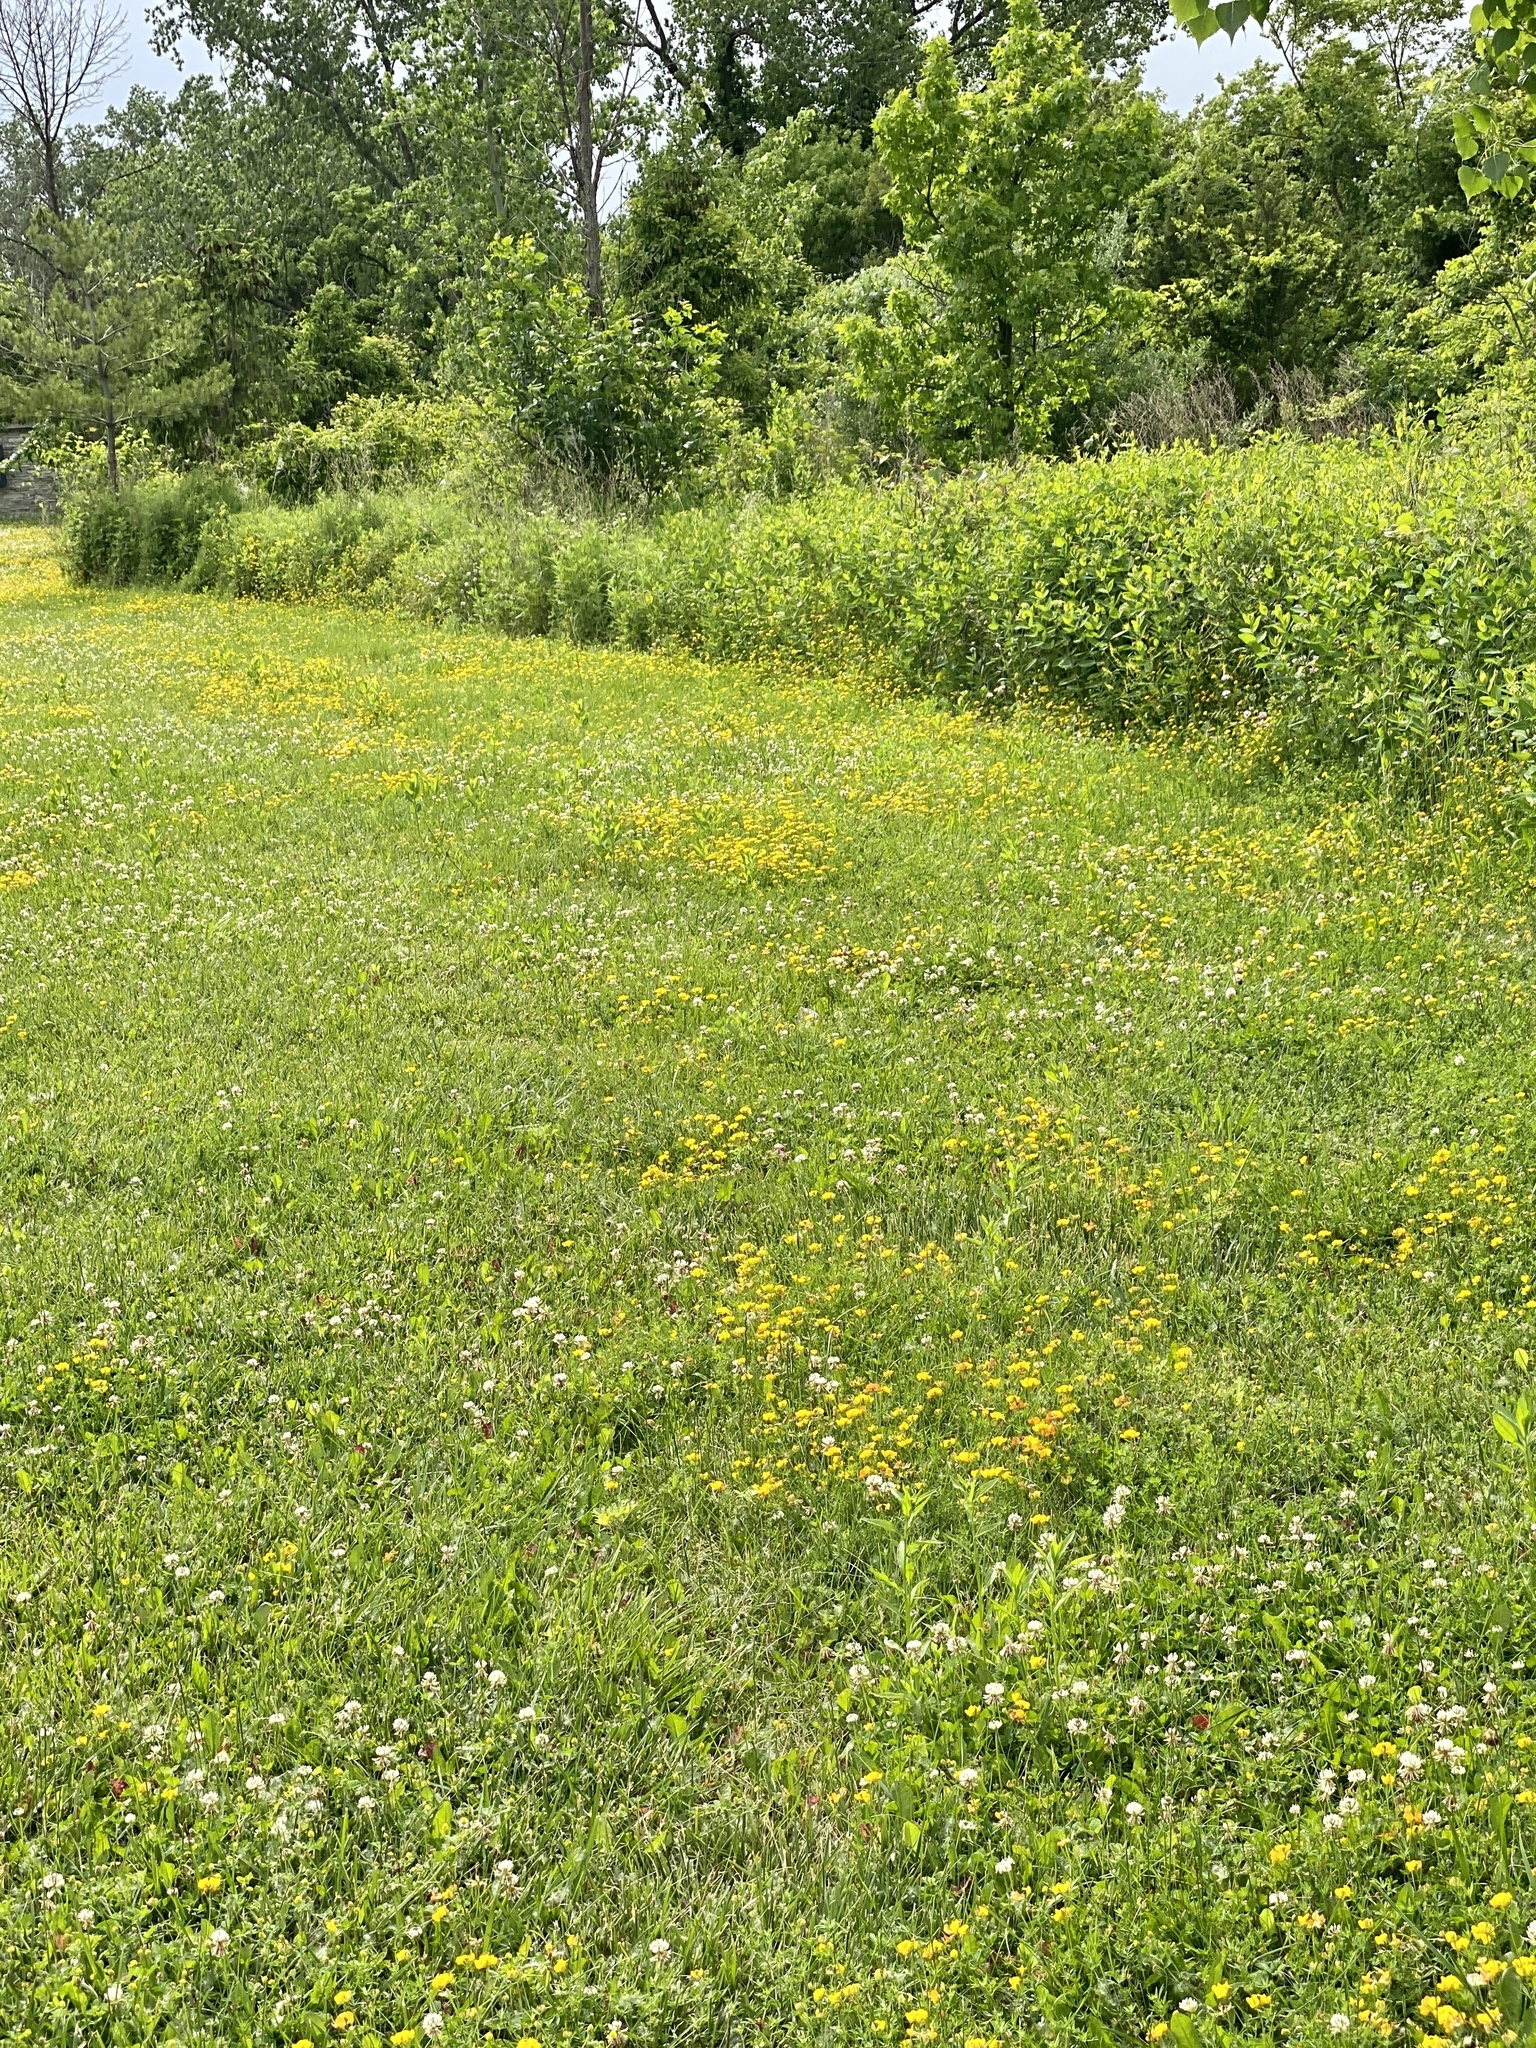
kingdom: Plantae
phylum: Tracheophyta
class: Magnoliopsida
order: Fabales
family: Fabaceae
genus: Lotus
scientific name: Lotus corniculatus
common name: Common bird's-foot-trefoil
